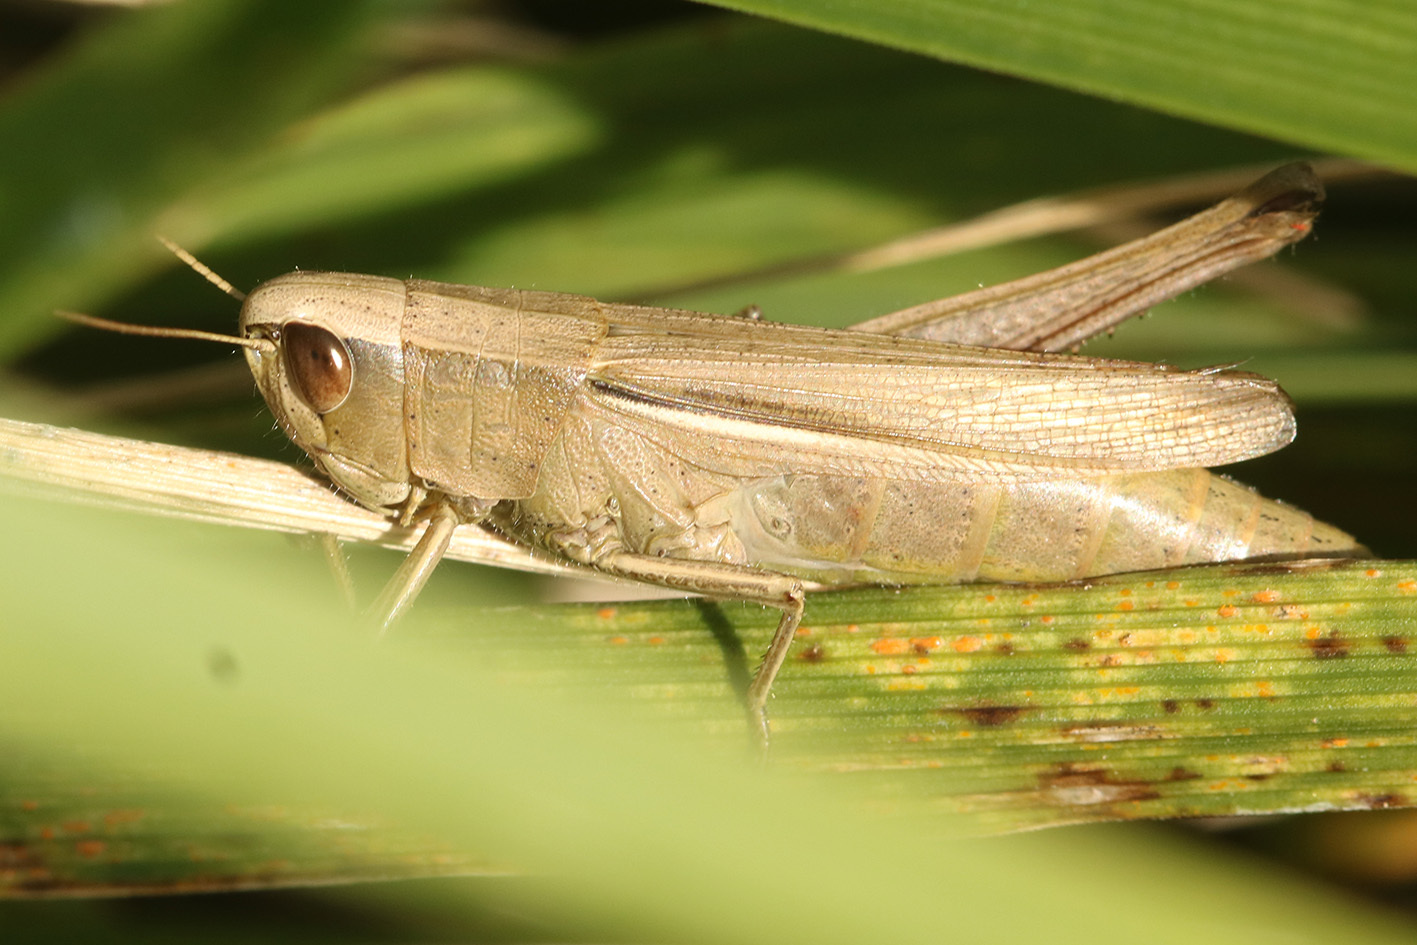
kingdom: Animalia
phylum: Arthropoda
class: Insecta
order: Orthoptera
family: Acrididae
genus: Amblytropidia
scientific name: Amblytropidia australis
